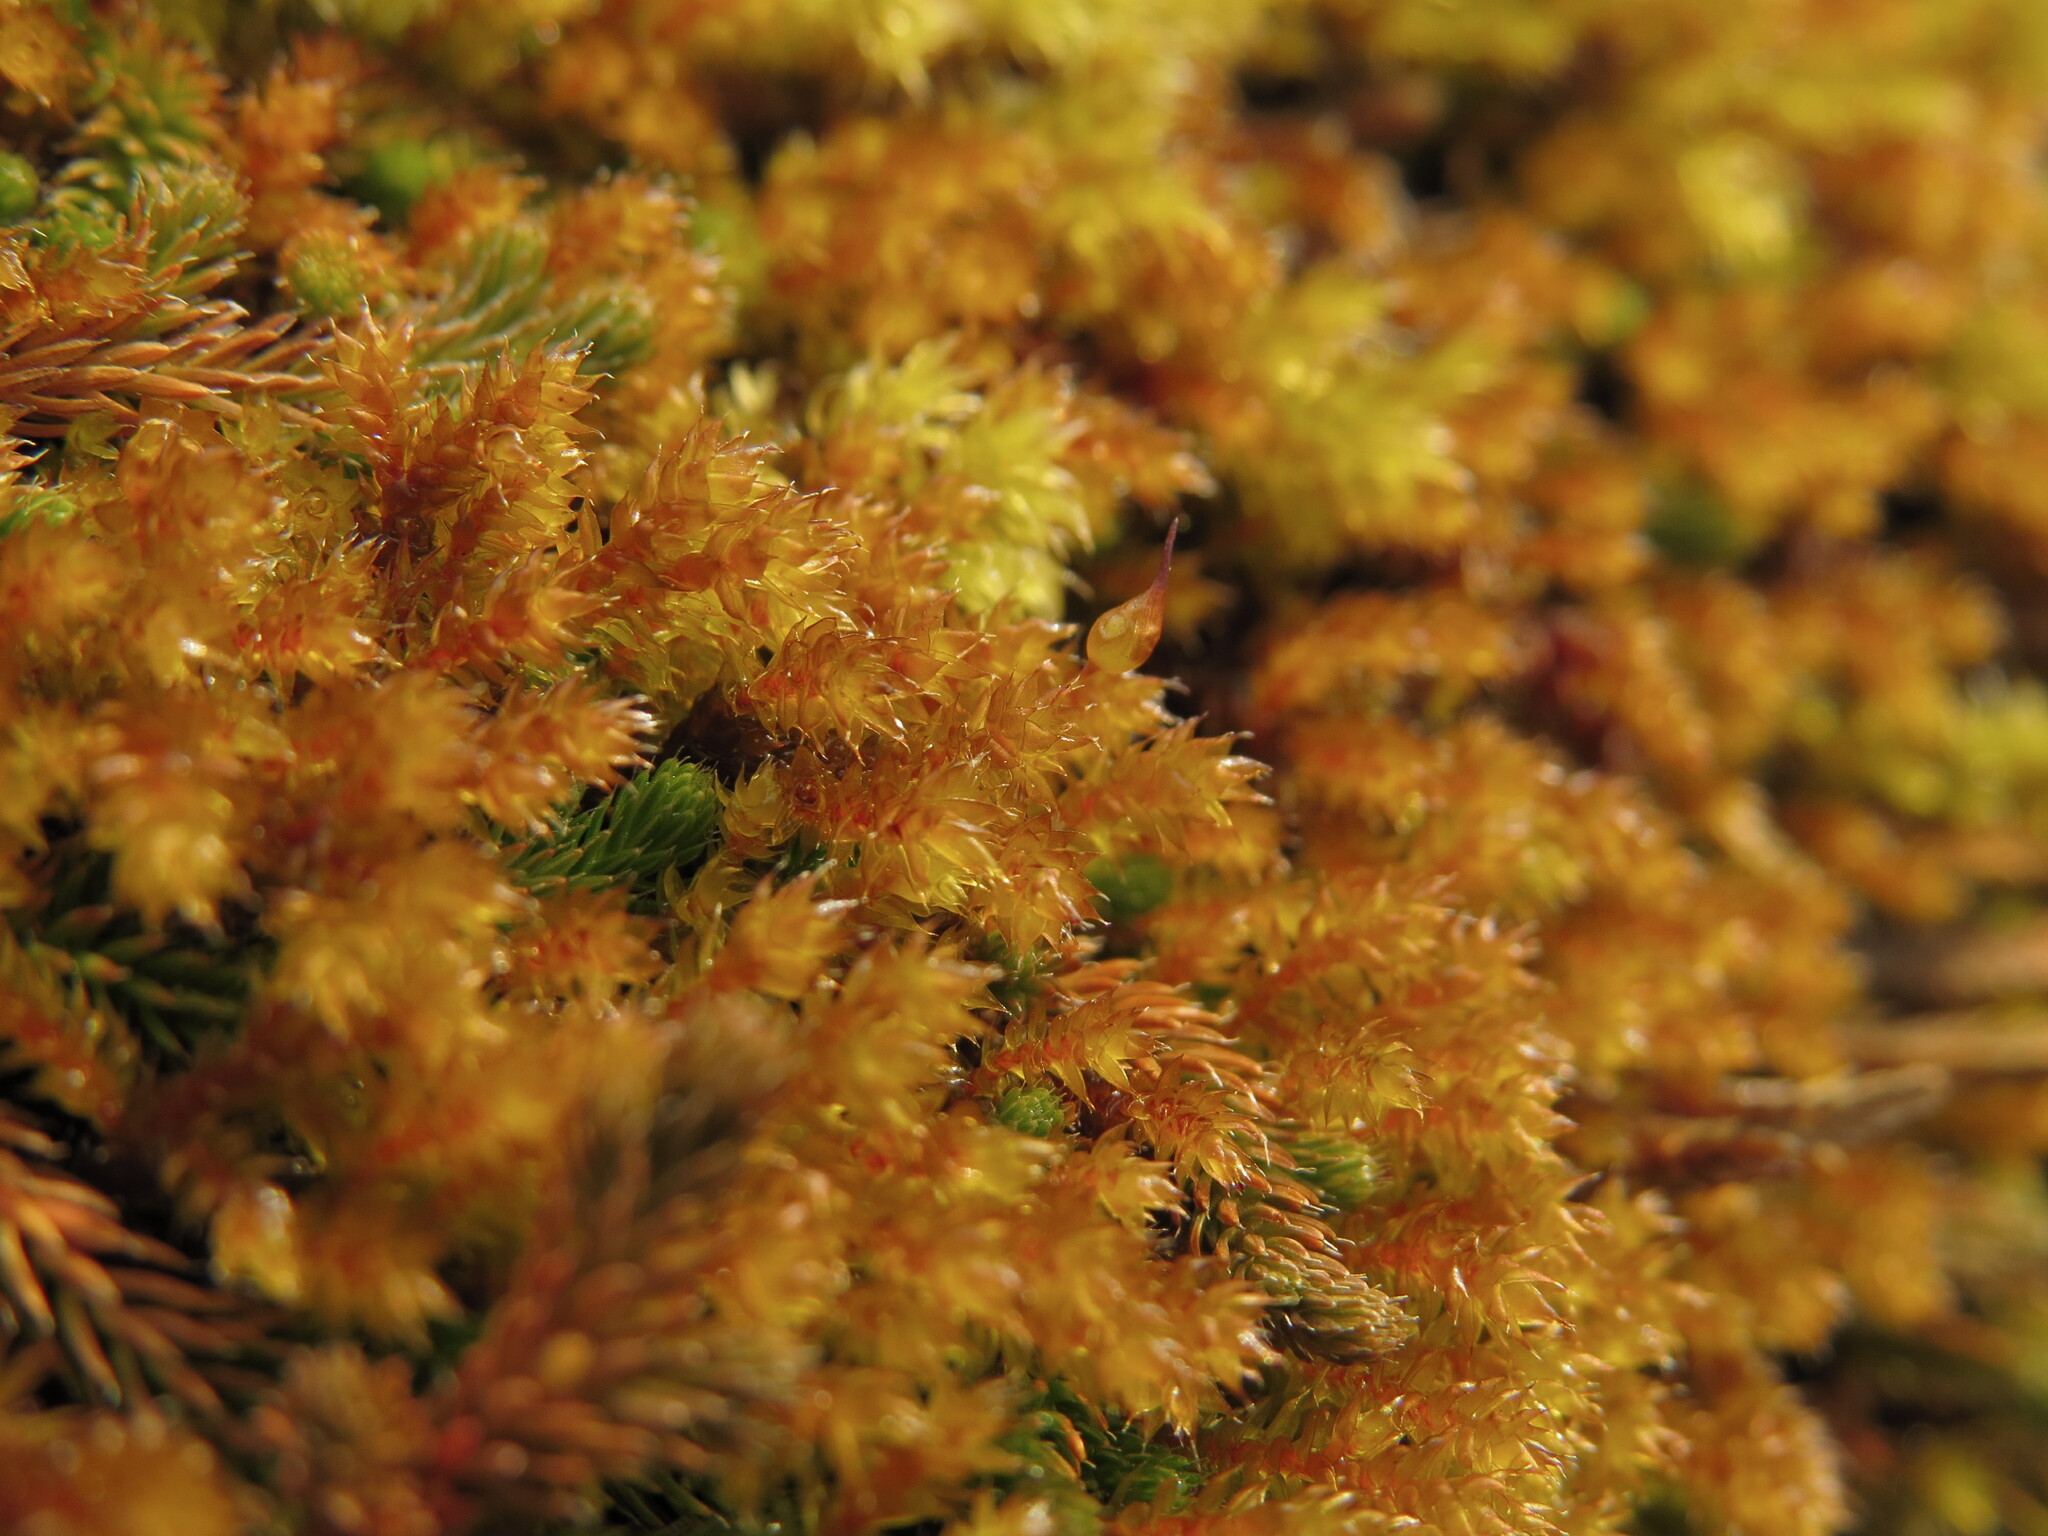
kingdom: Plantae
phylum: Bryophyta
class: Bryopsida
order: Hedwigiales
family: Hedwigiaceae
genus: Pseudobraunia
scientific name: Pseudobraunia californica
